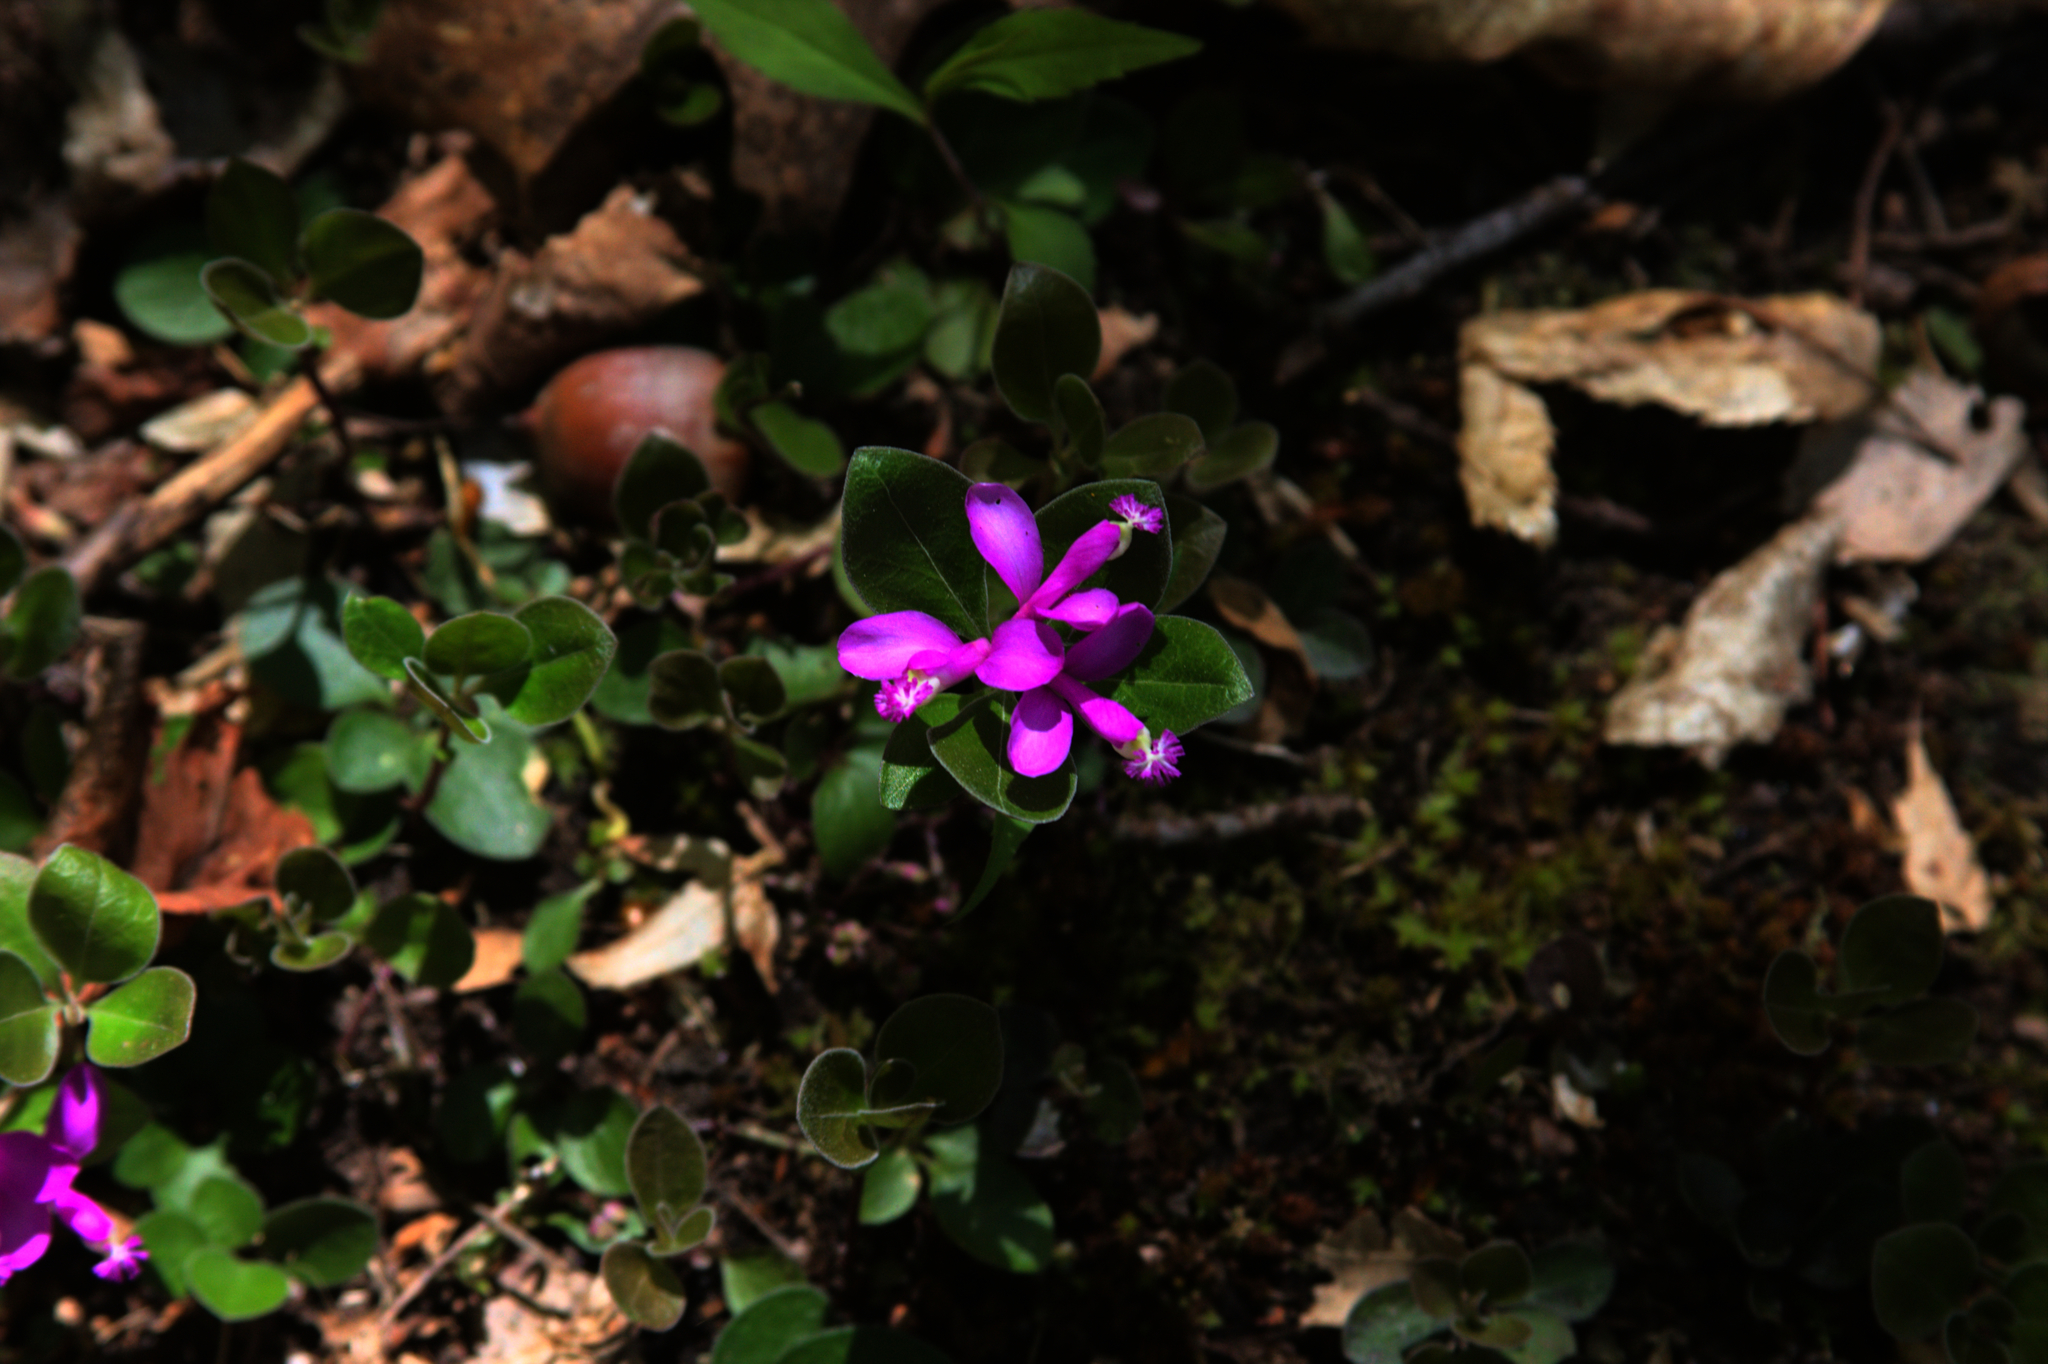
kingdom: Plantae
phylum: Tracheophyta
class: Magnoliopsida
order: Fabales
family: Polygalaceae
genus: Polygaloides
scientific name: Polygaloides paucifolia
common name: Bird-on-the-wing
